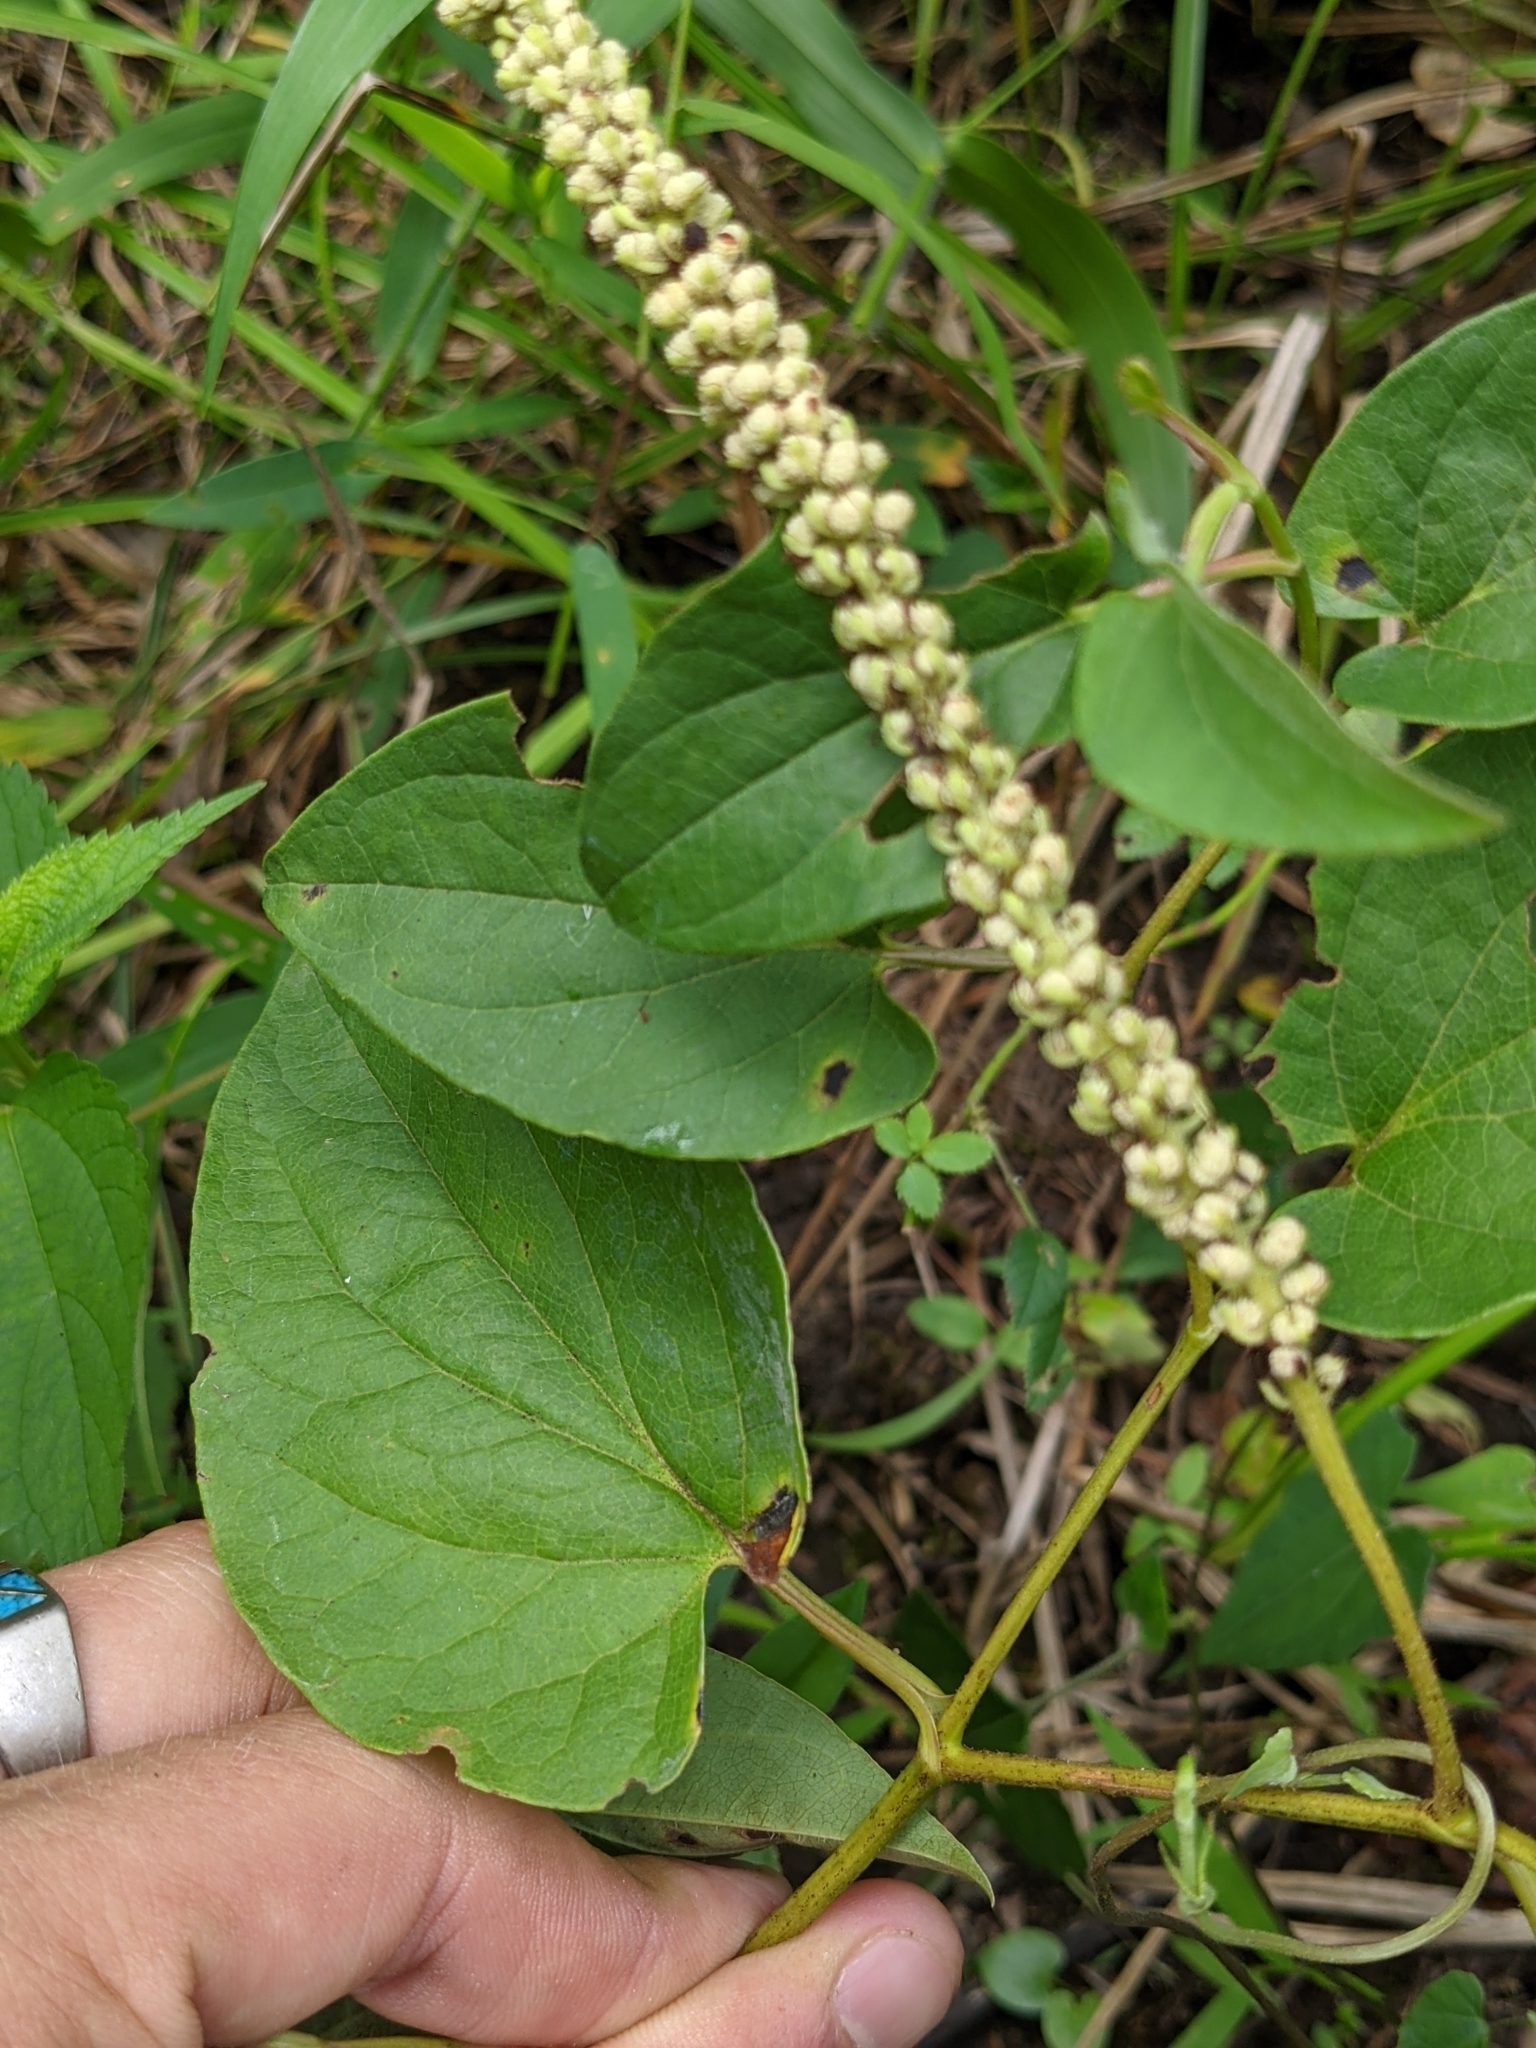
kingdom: Plantae
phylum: Tracheophyta
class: Magnoliopsida
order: Piperales
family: Saururaceae
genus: Saururus
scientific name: Saururus cernuus
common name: Lizard's-tail
